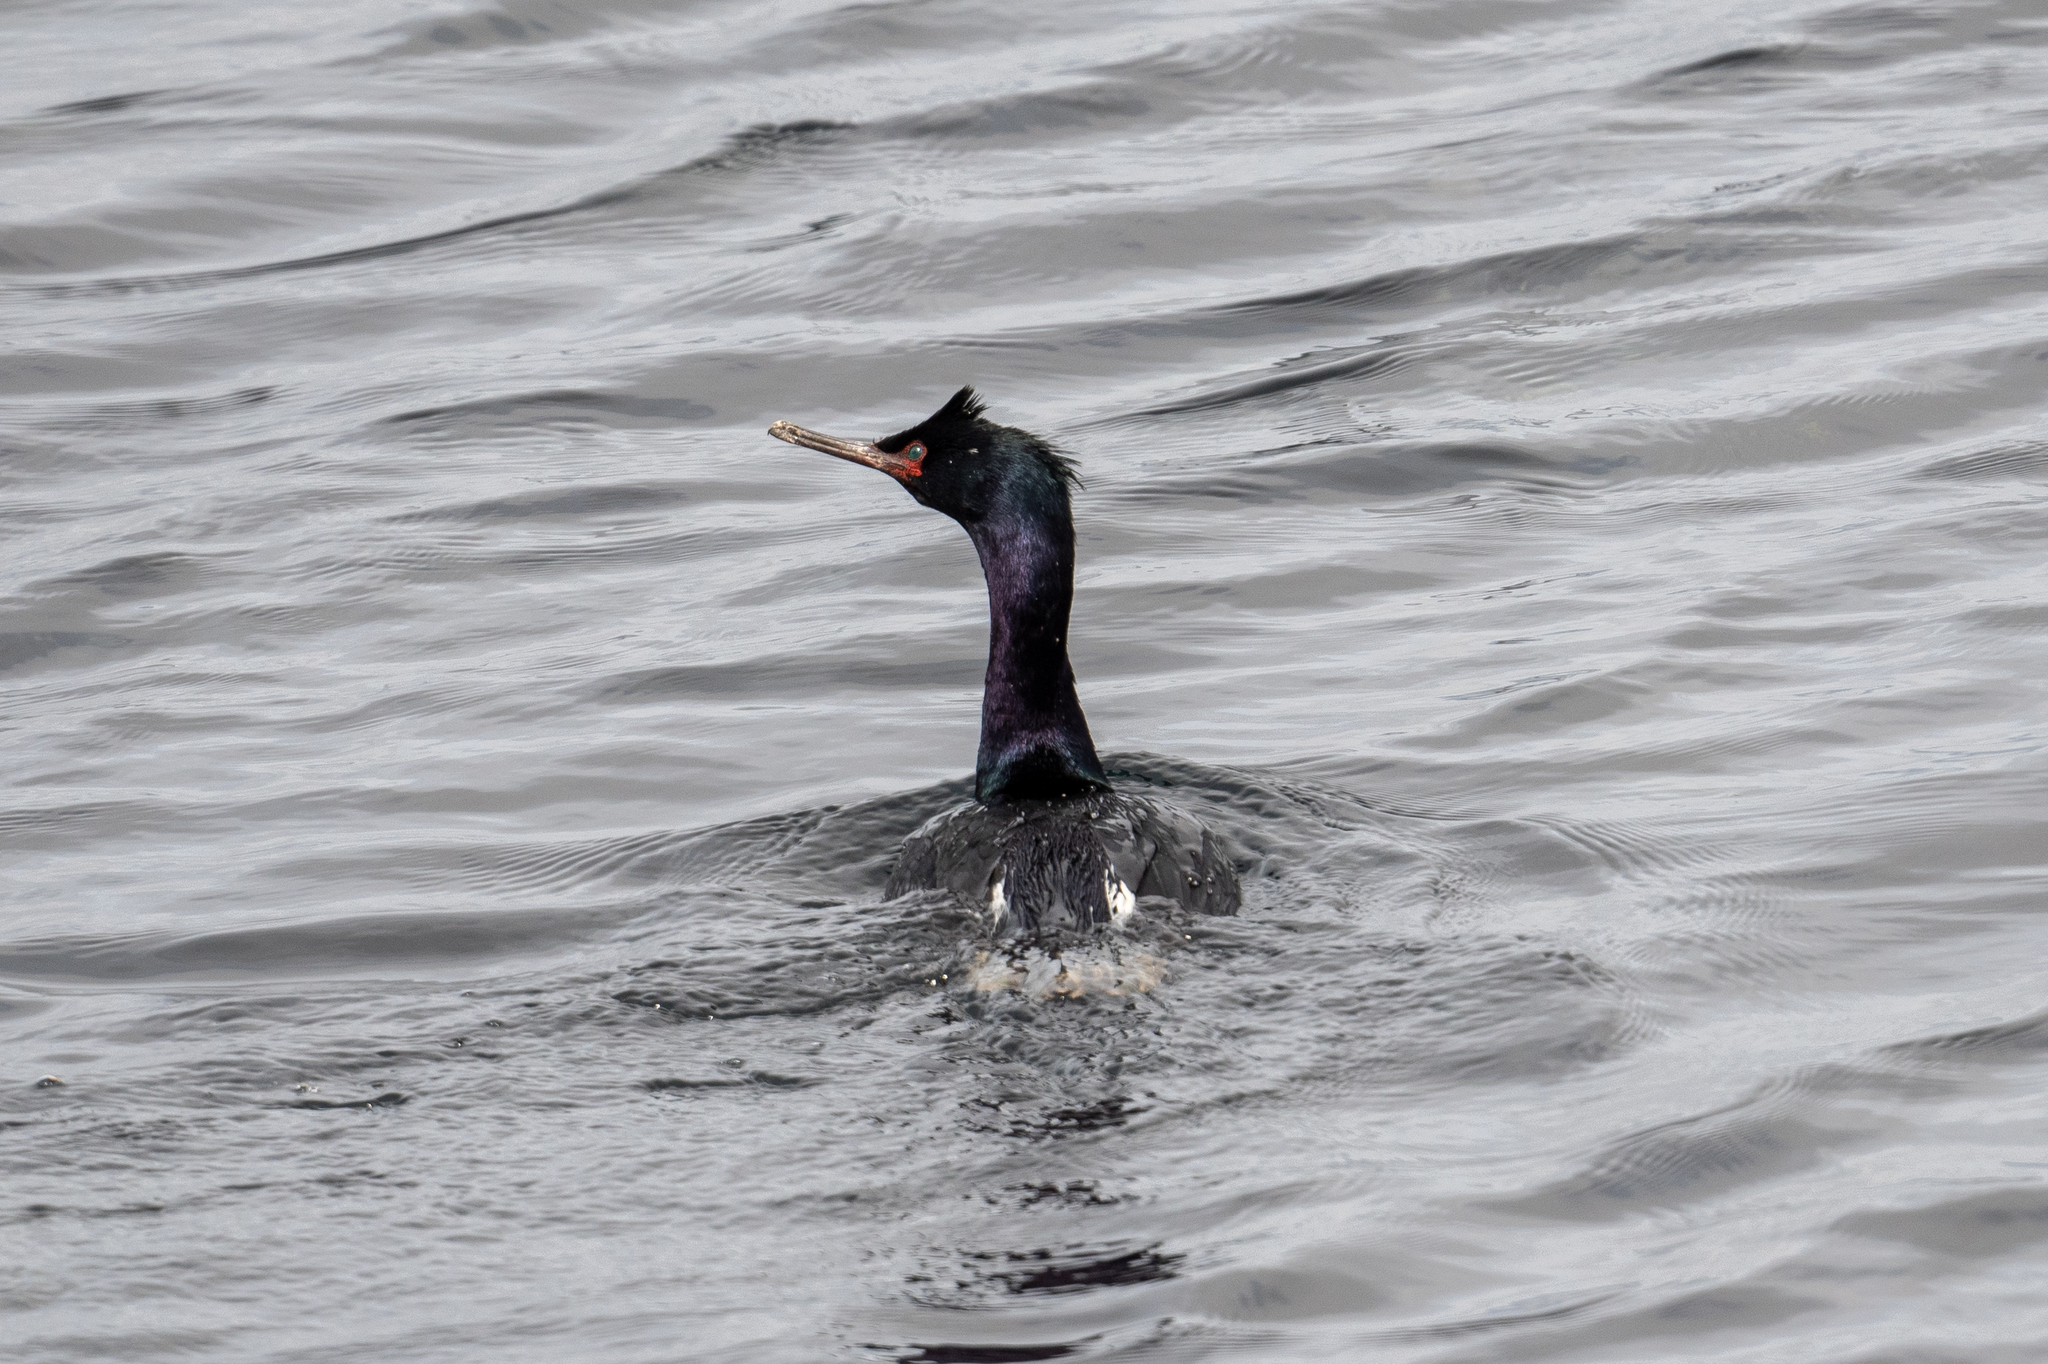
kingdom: Animalia
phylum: Chordata
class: Aves
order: Suliformes
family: Phalacrocoracidae
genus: Phalacrocorax
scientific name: Phalacrocorax pelagicus
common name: Pelagic cormorant
